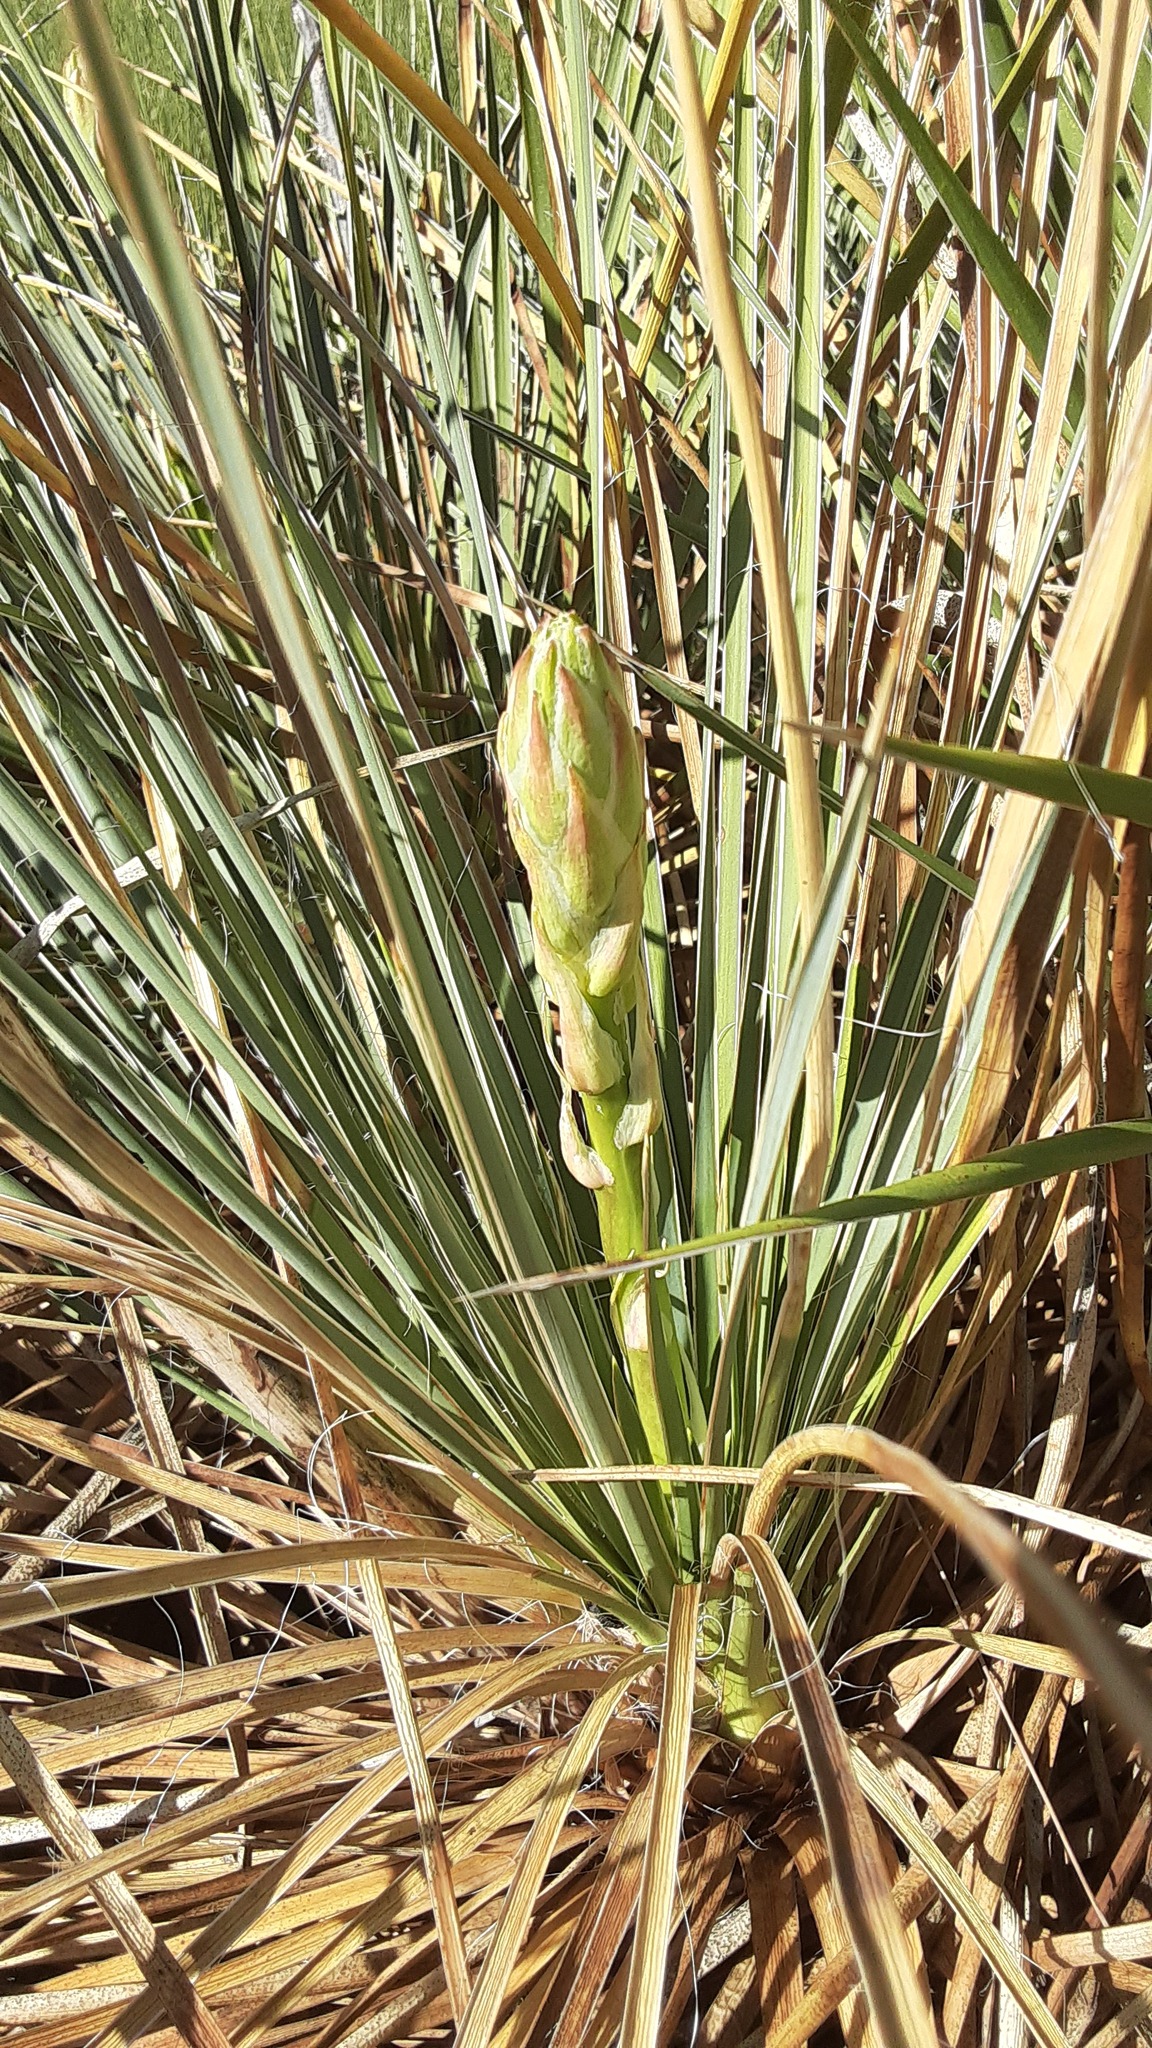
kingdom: Plantae
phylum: Tracheophyta
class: Liliopsida
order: Asparagales
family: Asparagaceae
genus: Yucca
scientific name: Yucca glauca
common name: Great plains yucca
